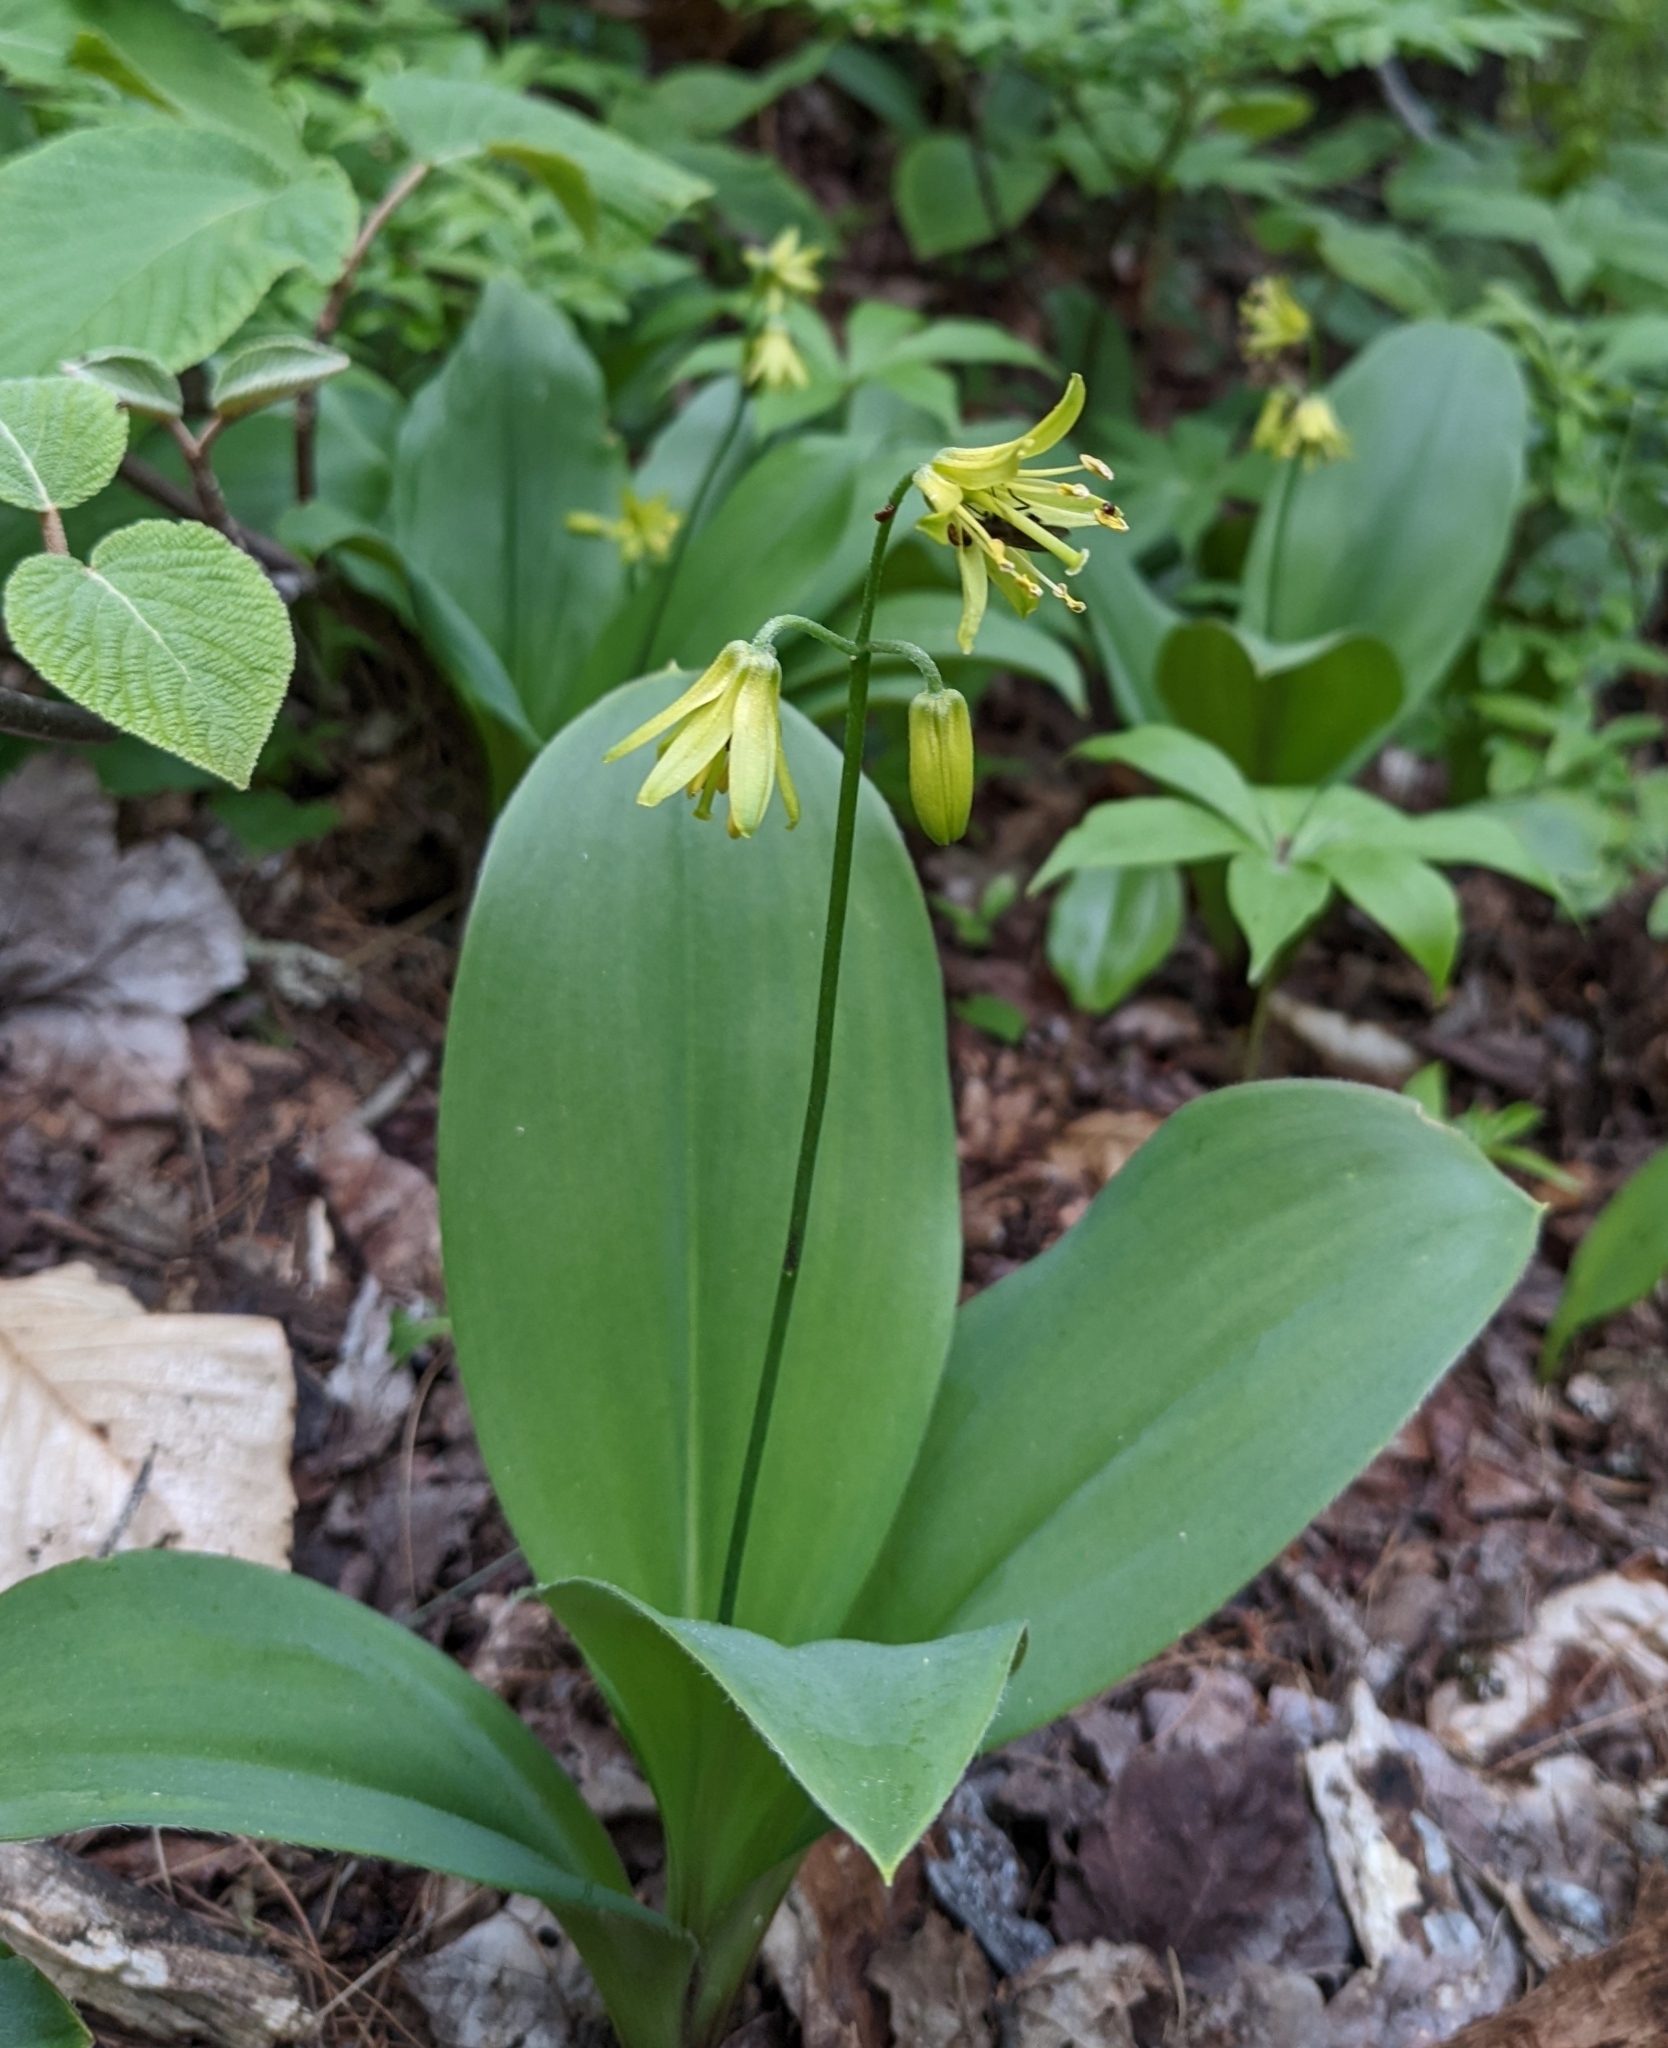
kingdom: Plantae
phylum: Tracheophyta
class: Liliopsida
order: Liliales
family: Liliaceae
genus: Clintonia
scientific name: Clintonia borealis
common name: Yellow clintonia
